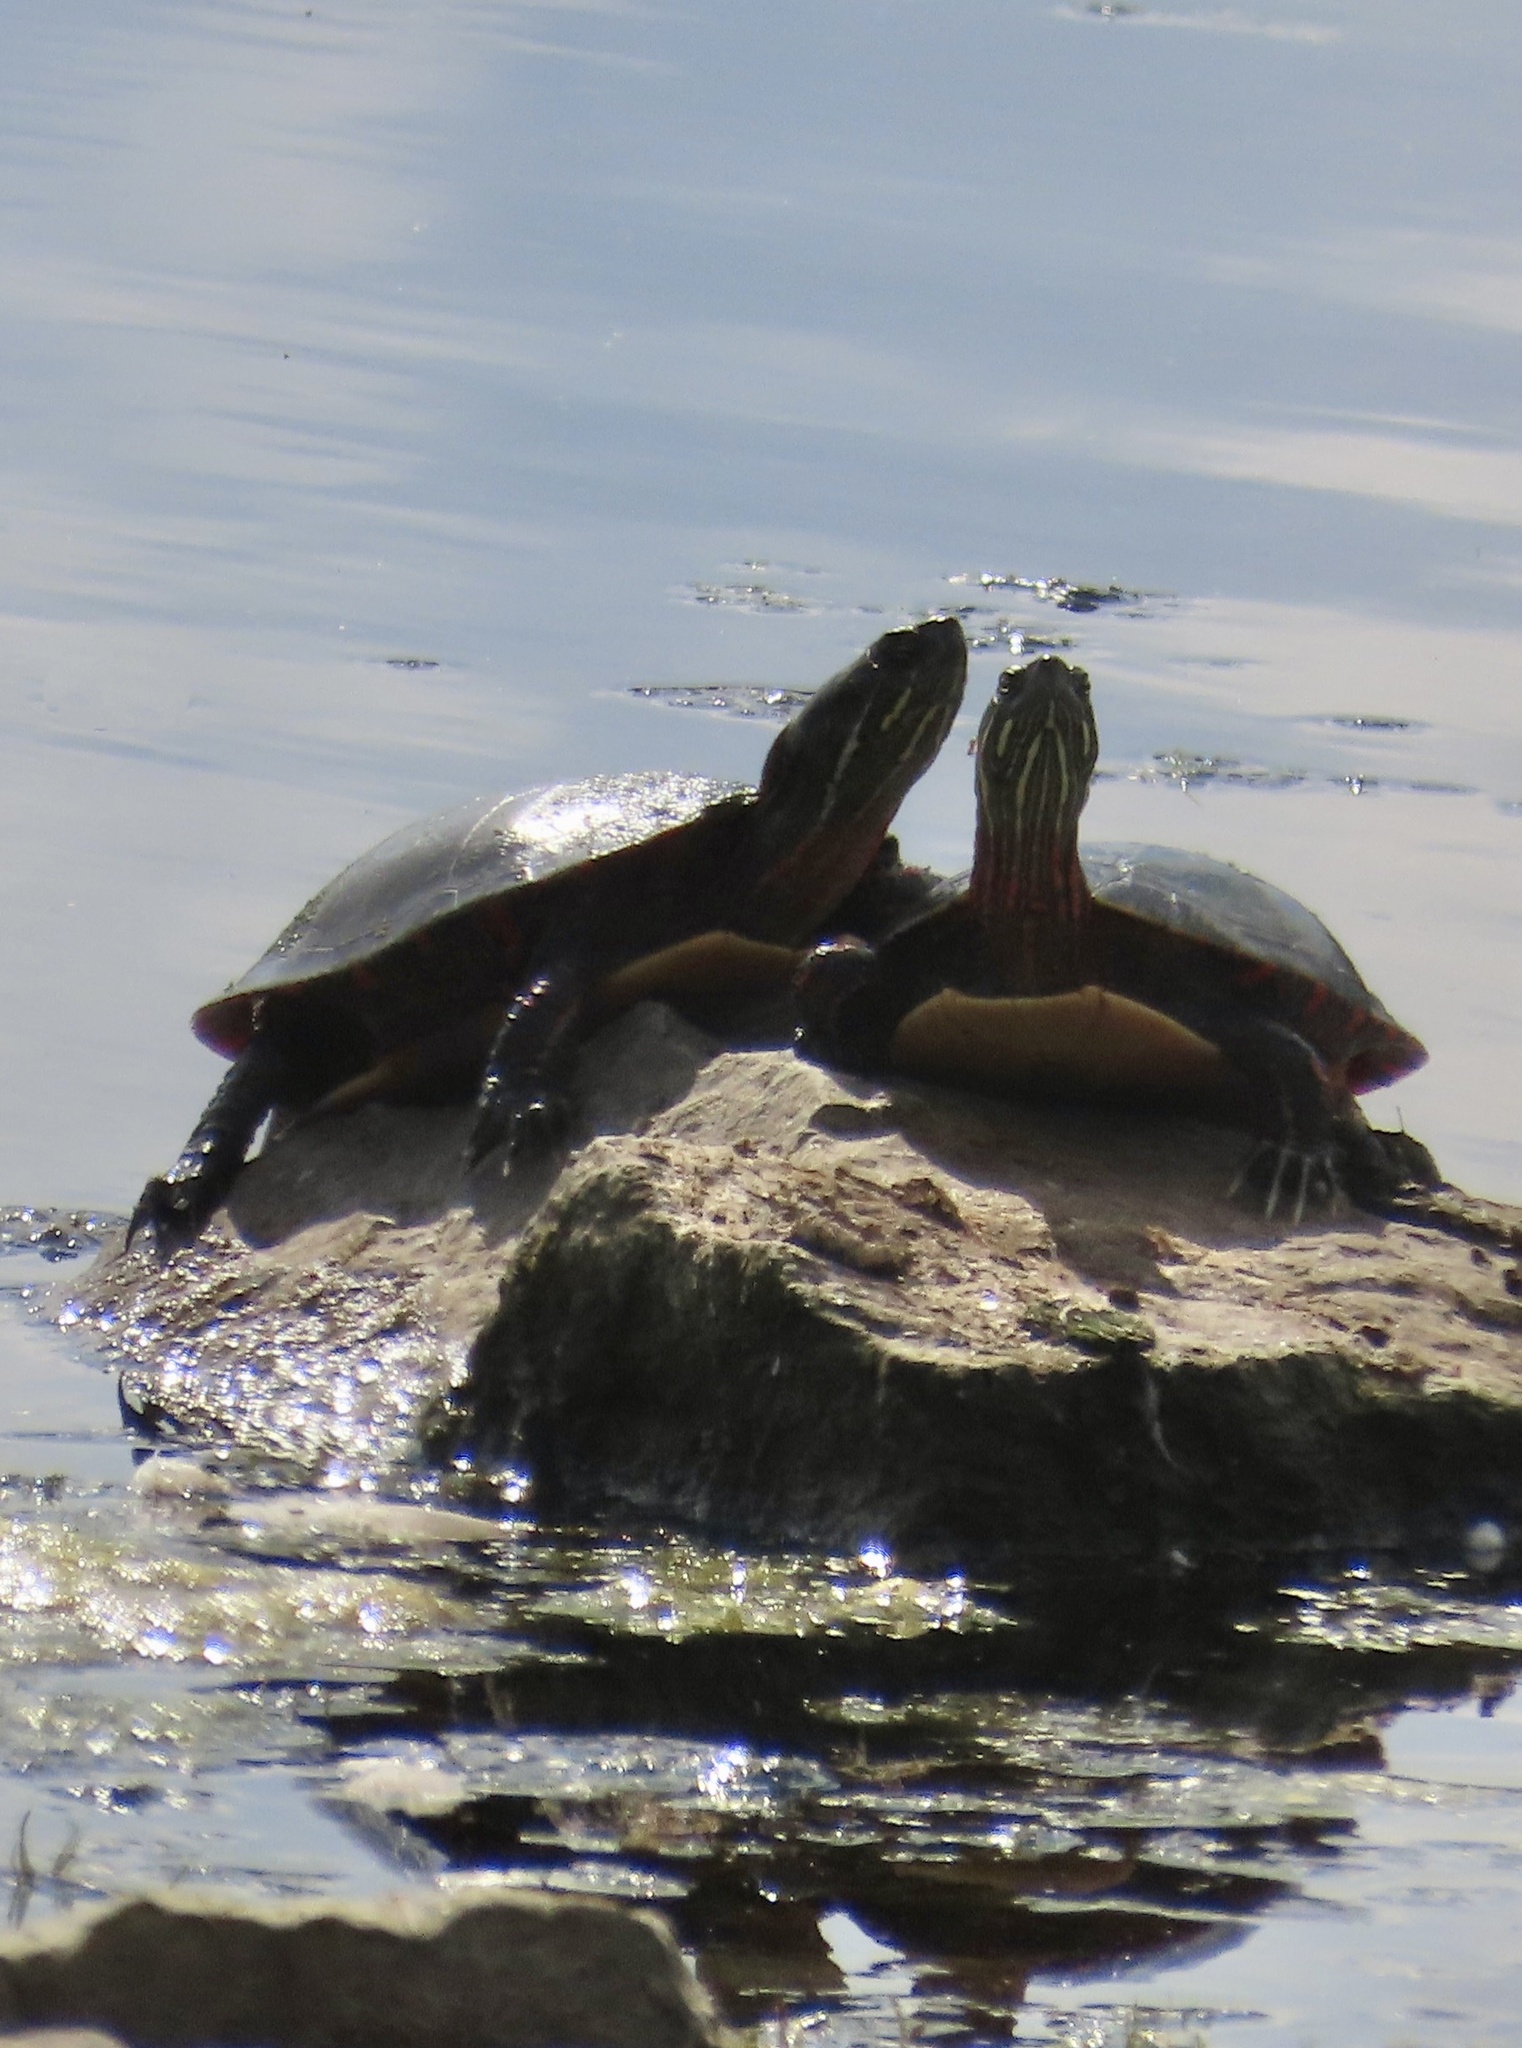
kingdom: Animalia
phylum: Chordata
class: Testudines
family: Emydidae
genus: Chrysemys
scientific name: Chrysemys picta
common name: Painted turtle
